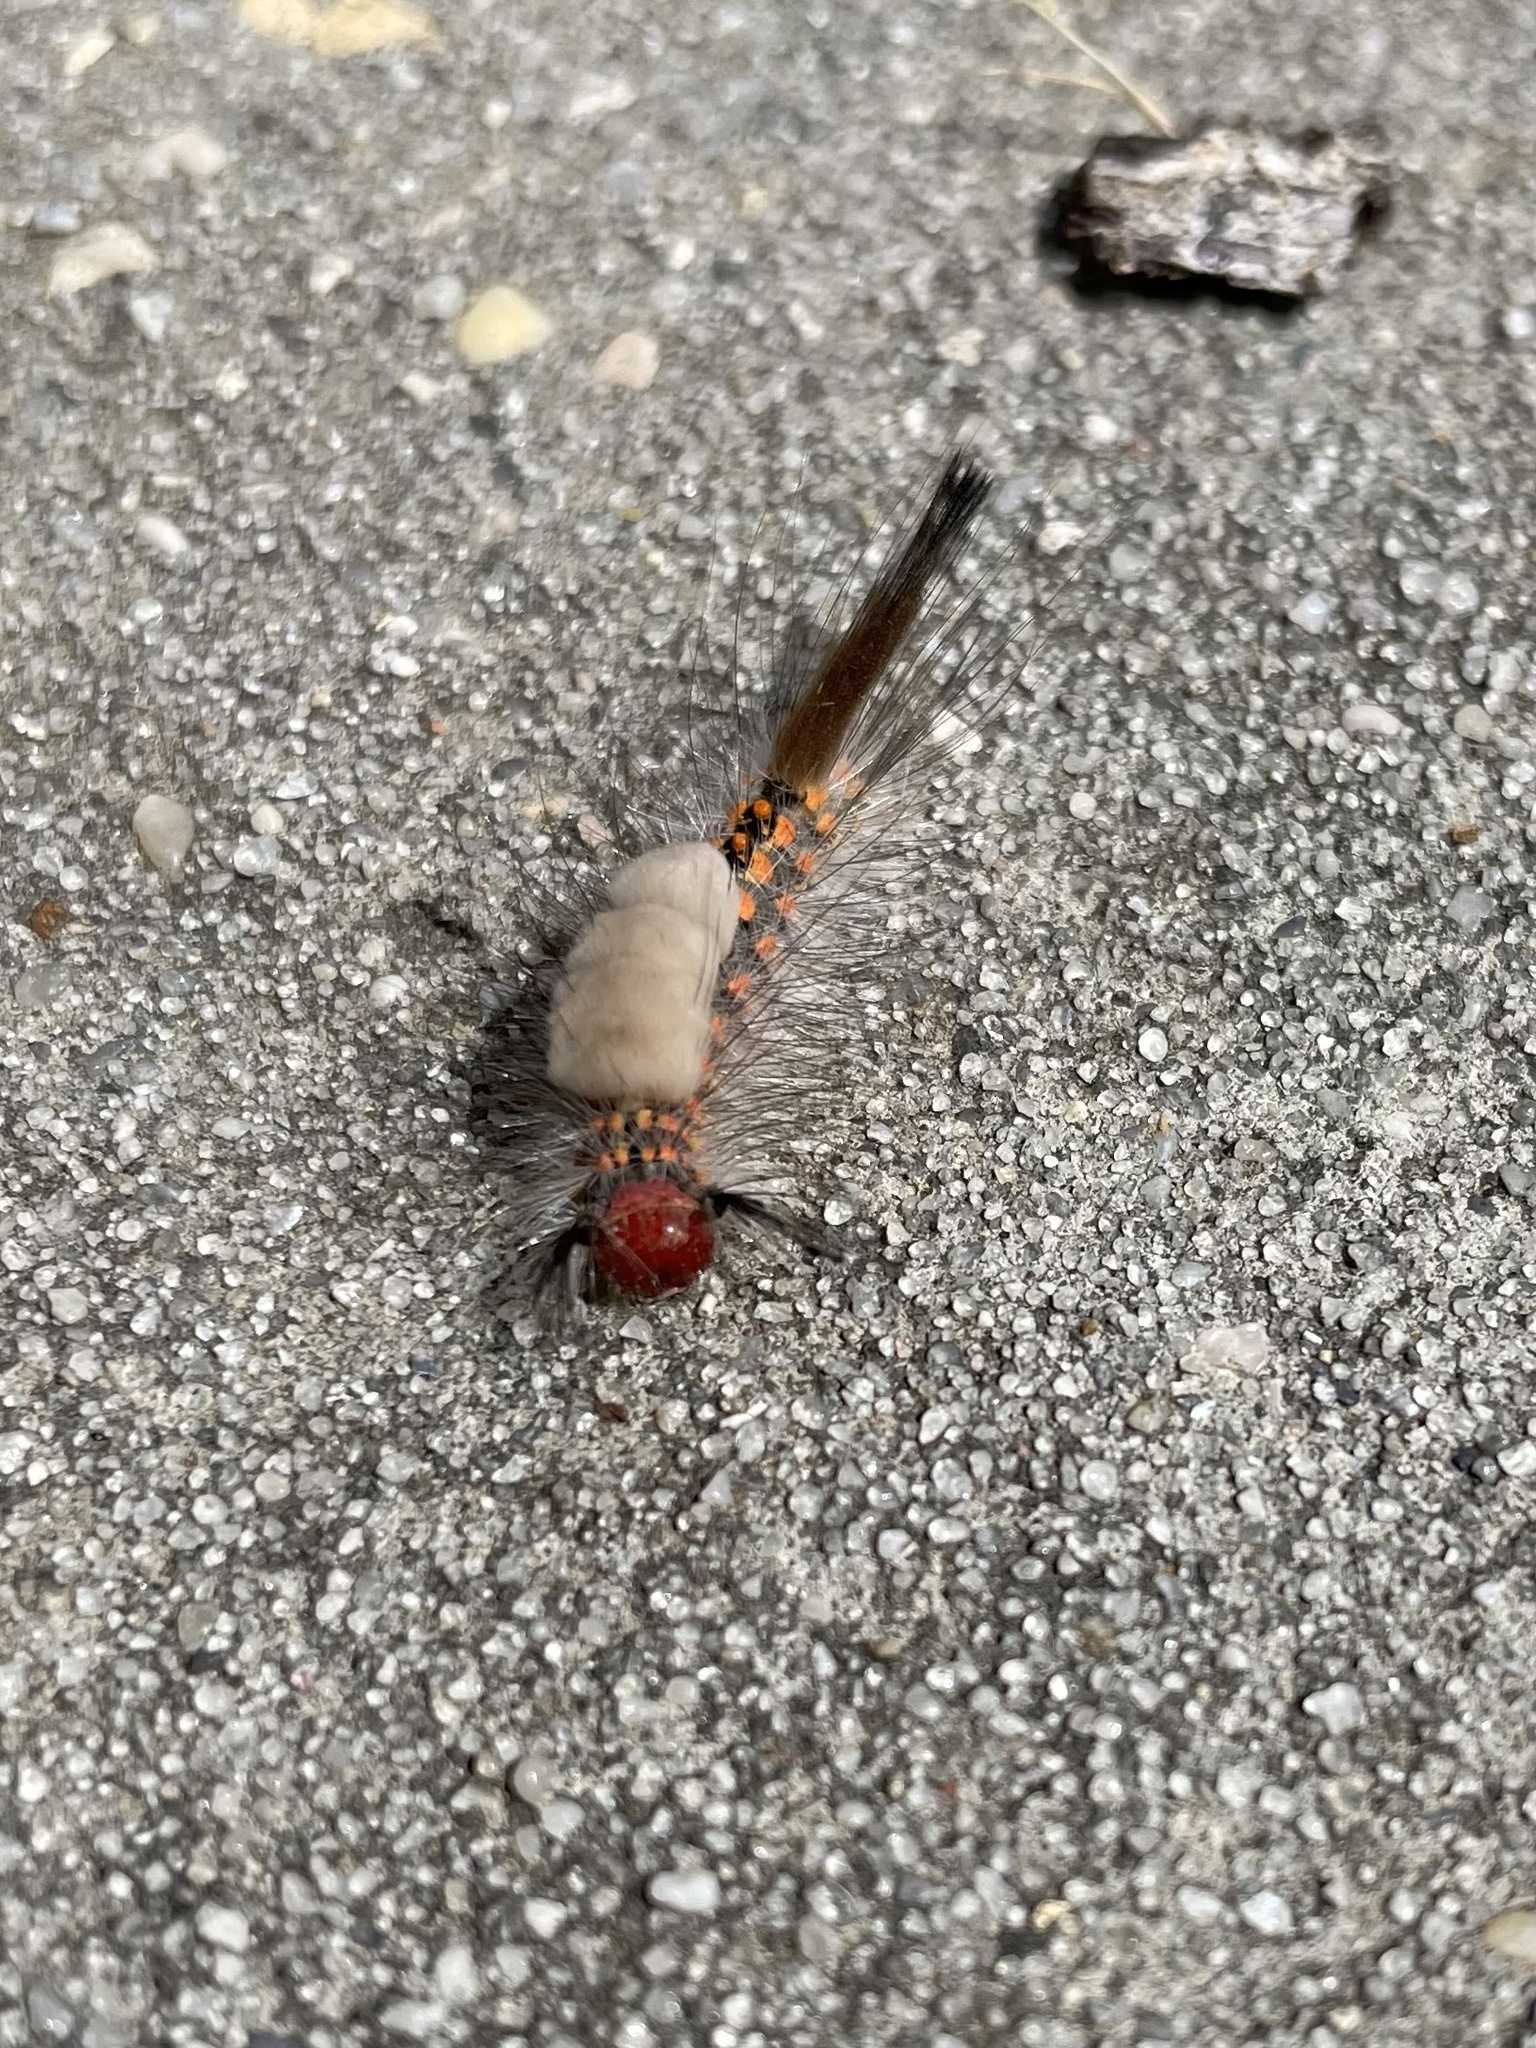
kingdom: Animalia
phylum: Arthropoda
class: Insecta
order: Lepidoptera
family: Erebidae
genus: Orgyia
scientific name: Orgyia detrita
